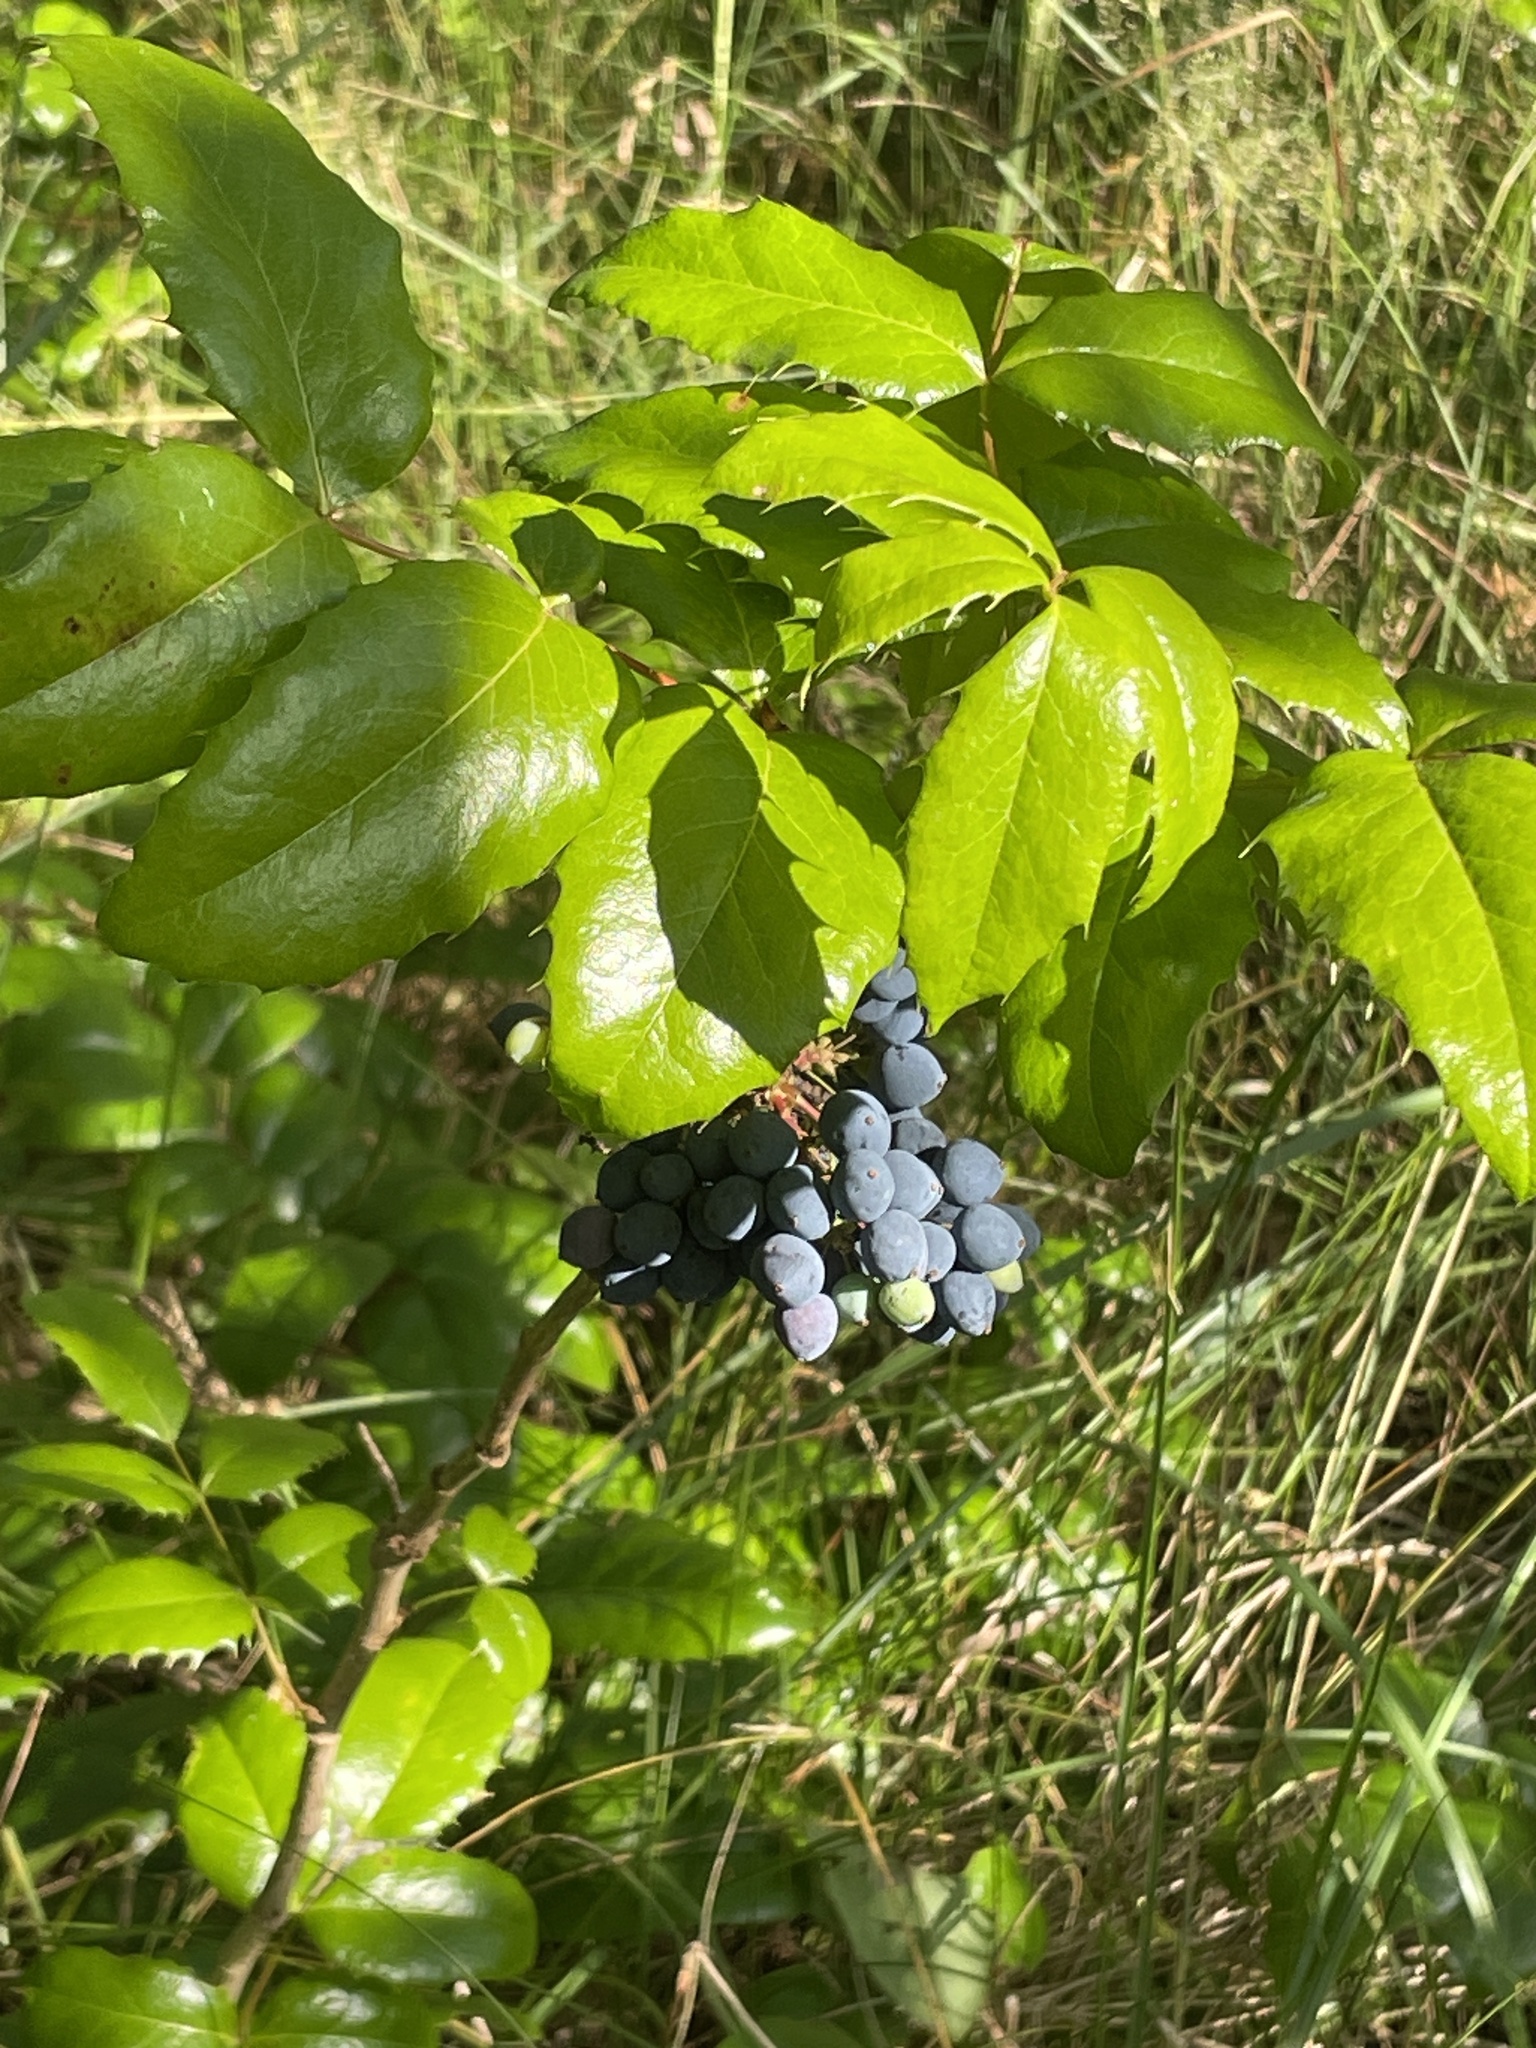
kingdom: Plantae
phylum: Tracheophyta
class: Magnoliopsida
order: Ranunculales
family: Berberidaceae
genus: Mahonia
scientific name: Mahonia aquifolium
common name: Oregon-grape
